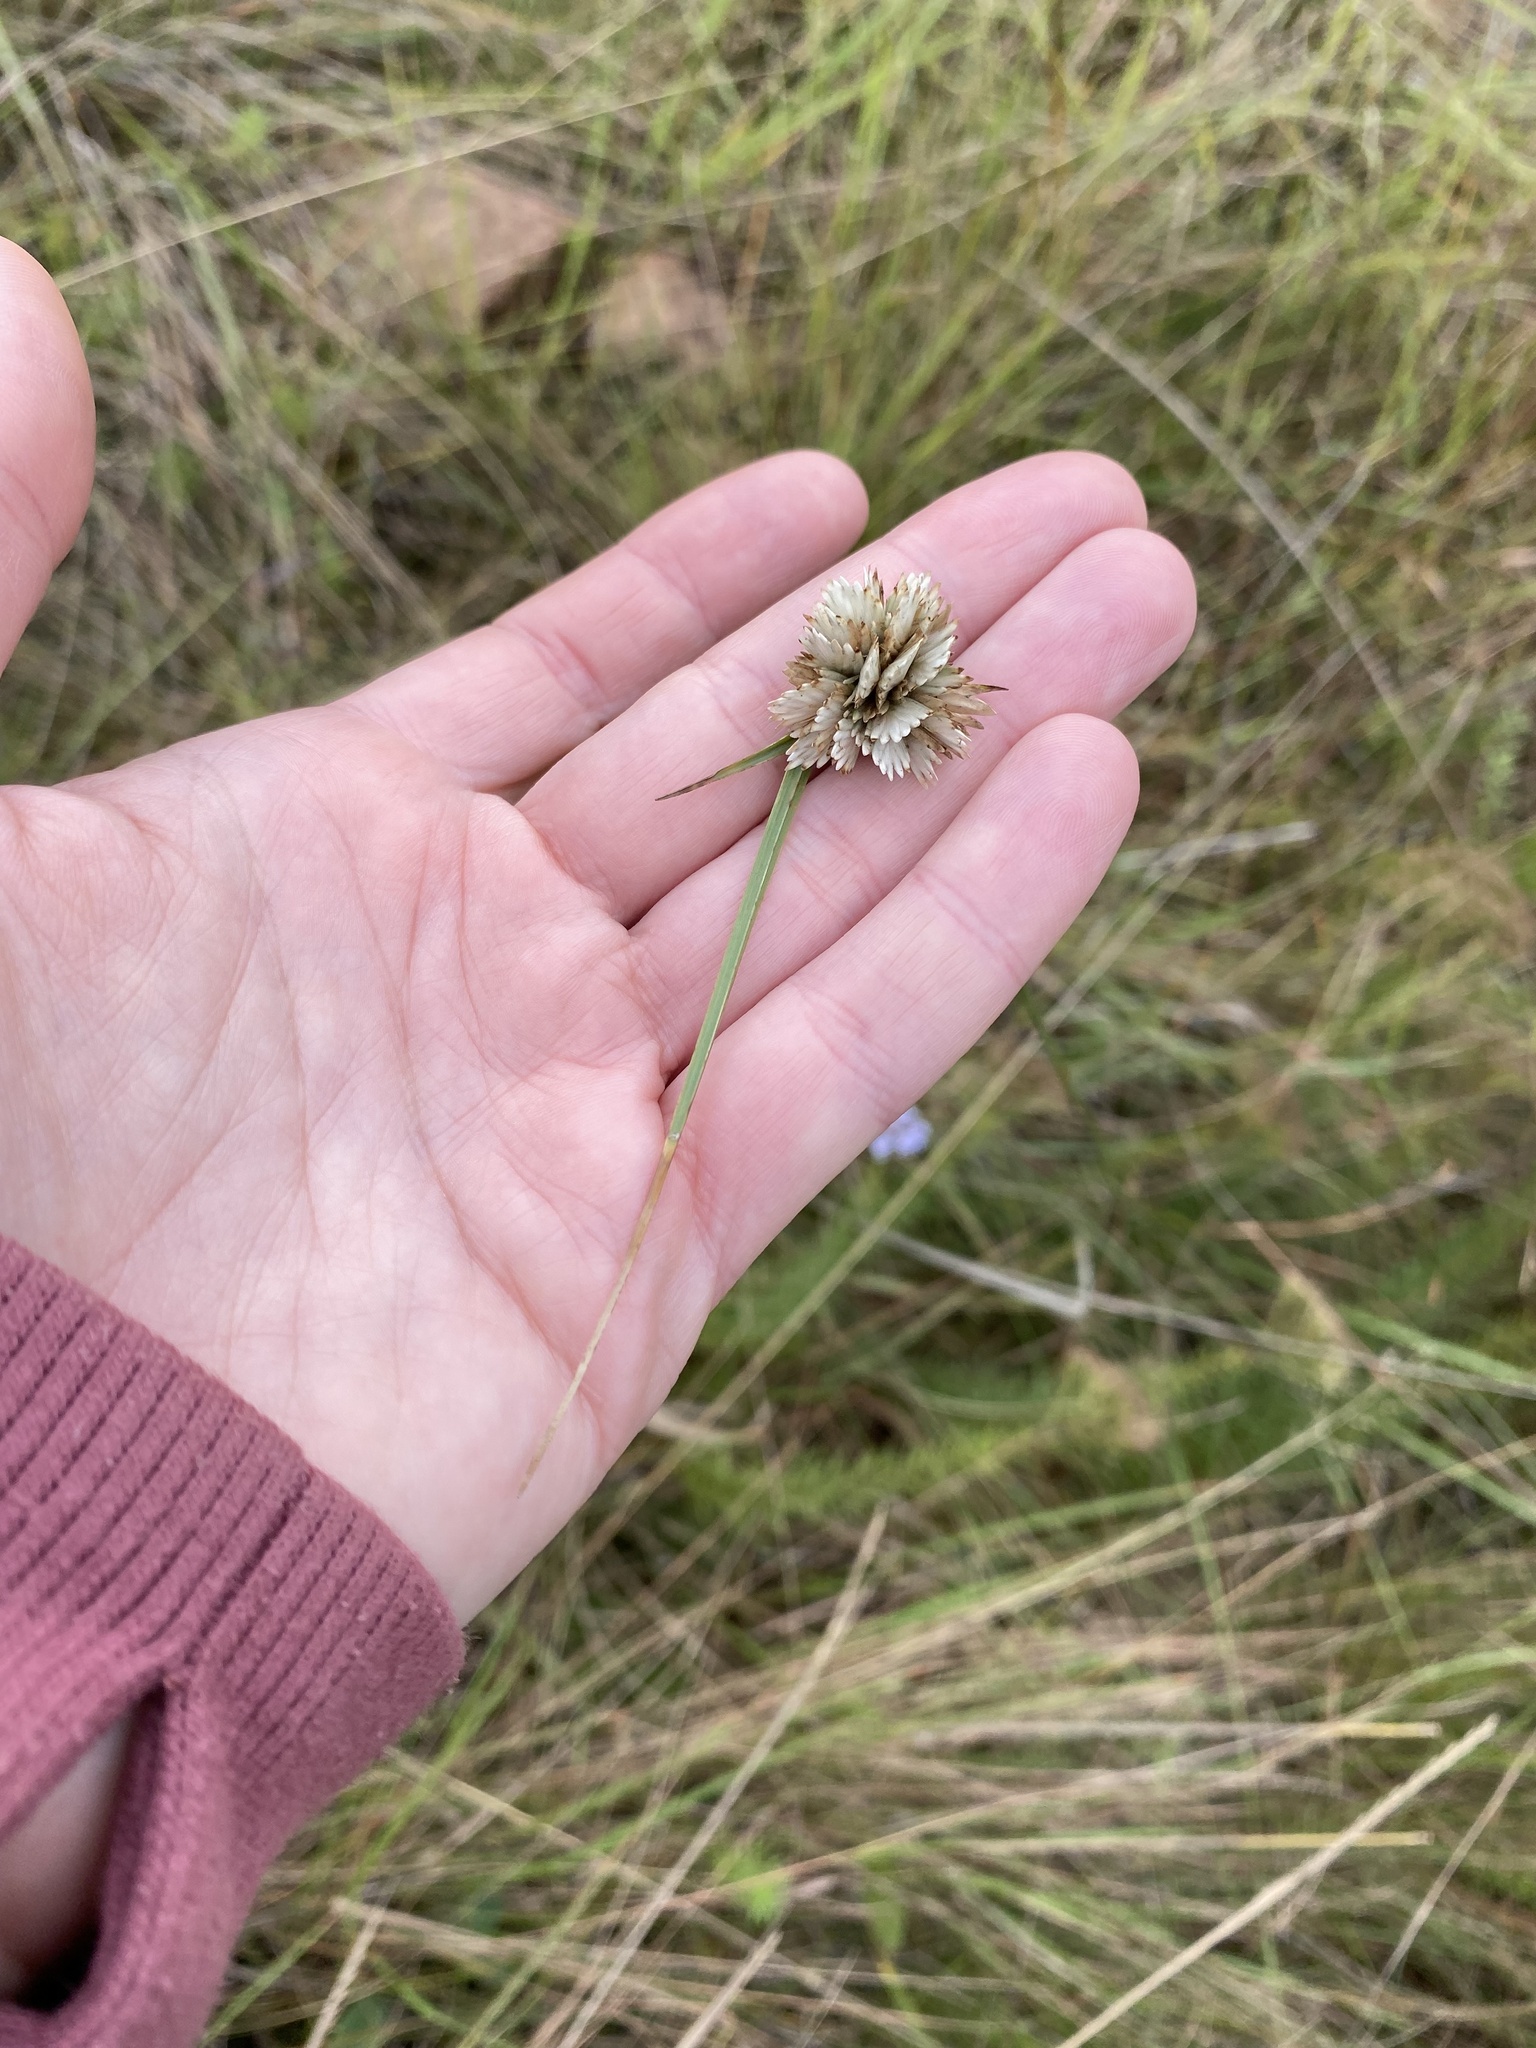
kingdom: Plantae
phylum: Tracheophyta
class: Liliopsida
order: Poales
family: Cyperaceae
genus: Cyperus
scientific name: Cyperus niveus
